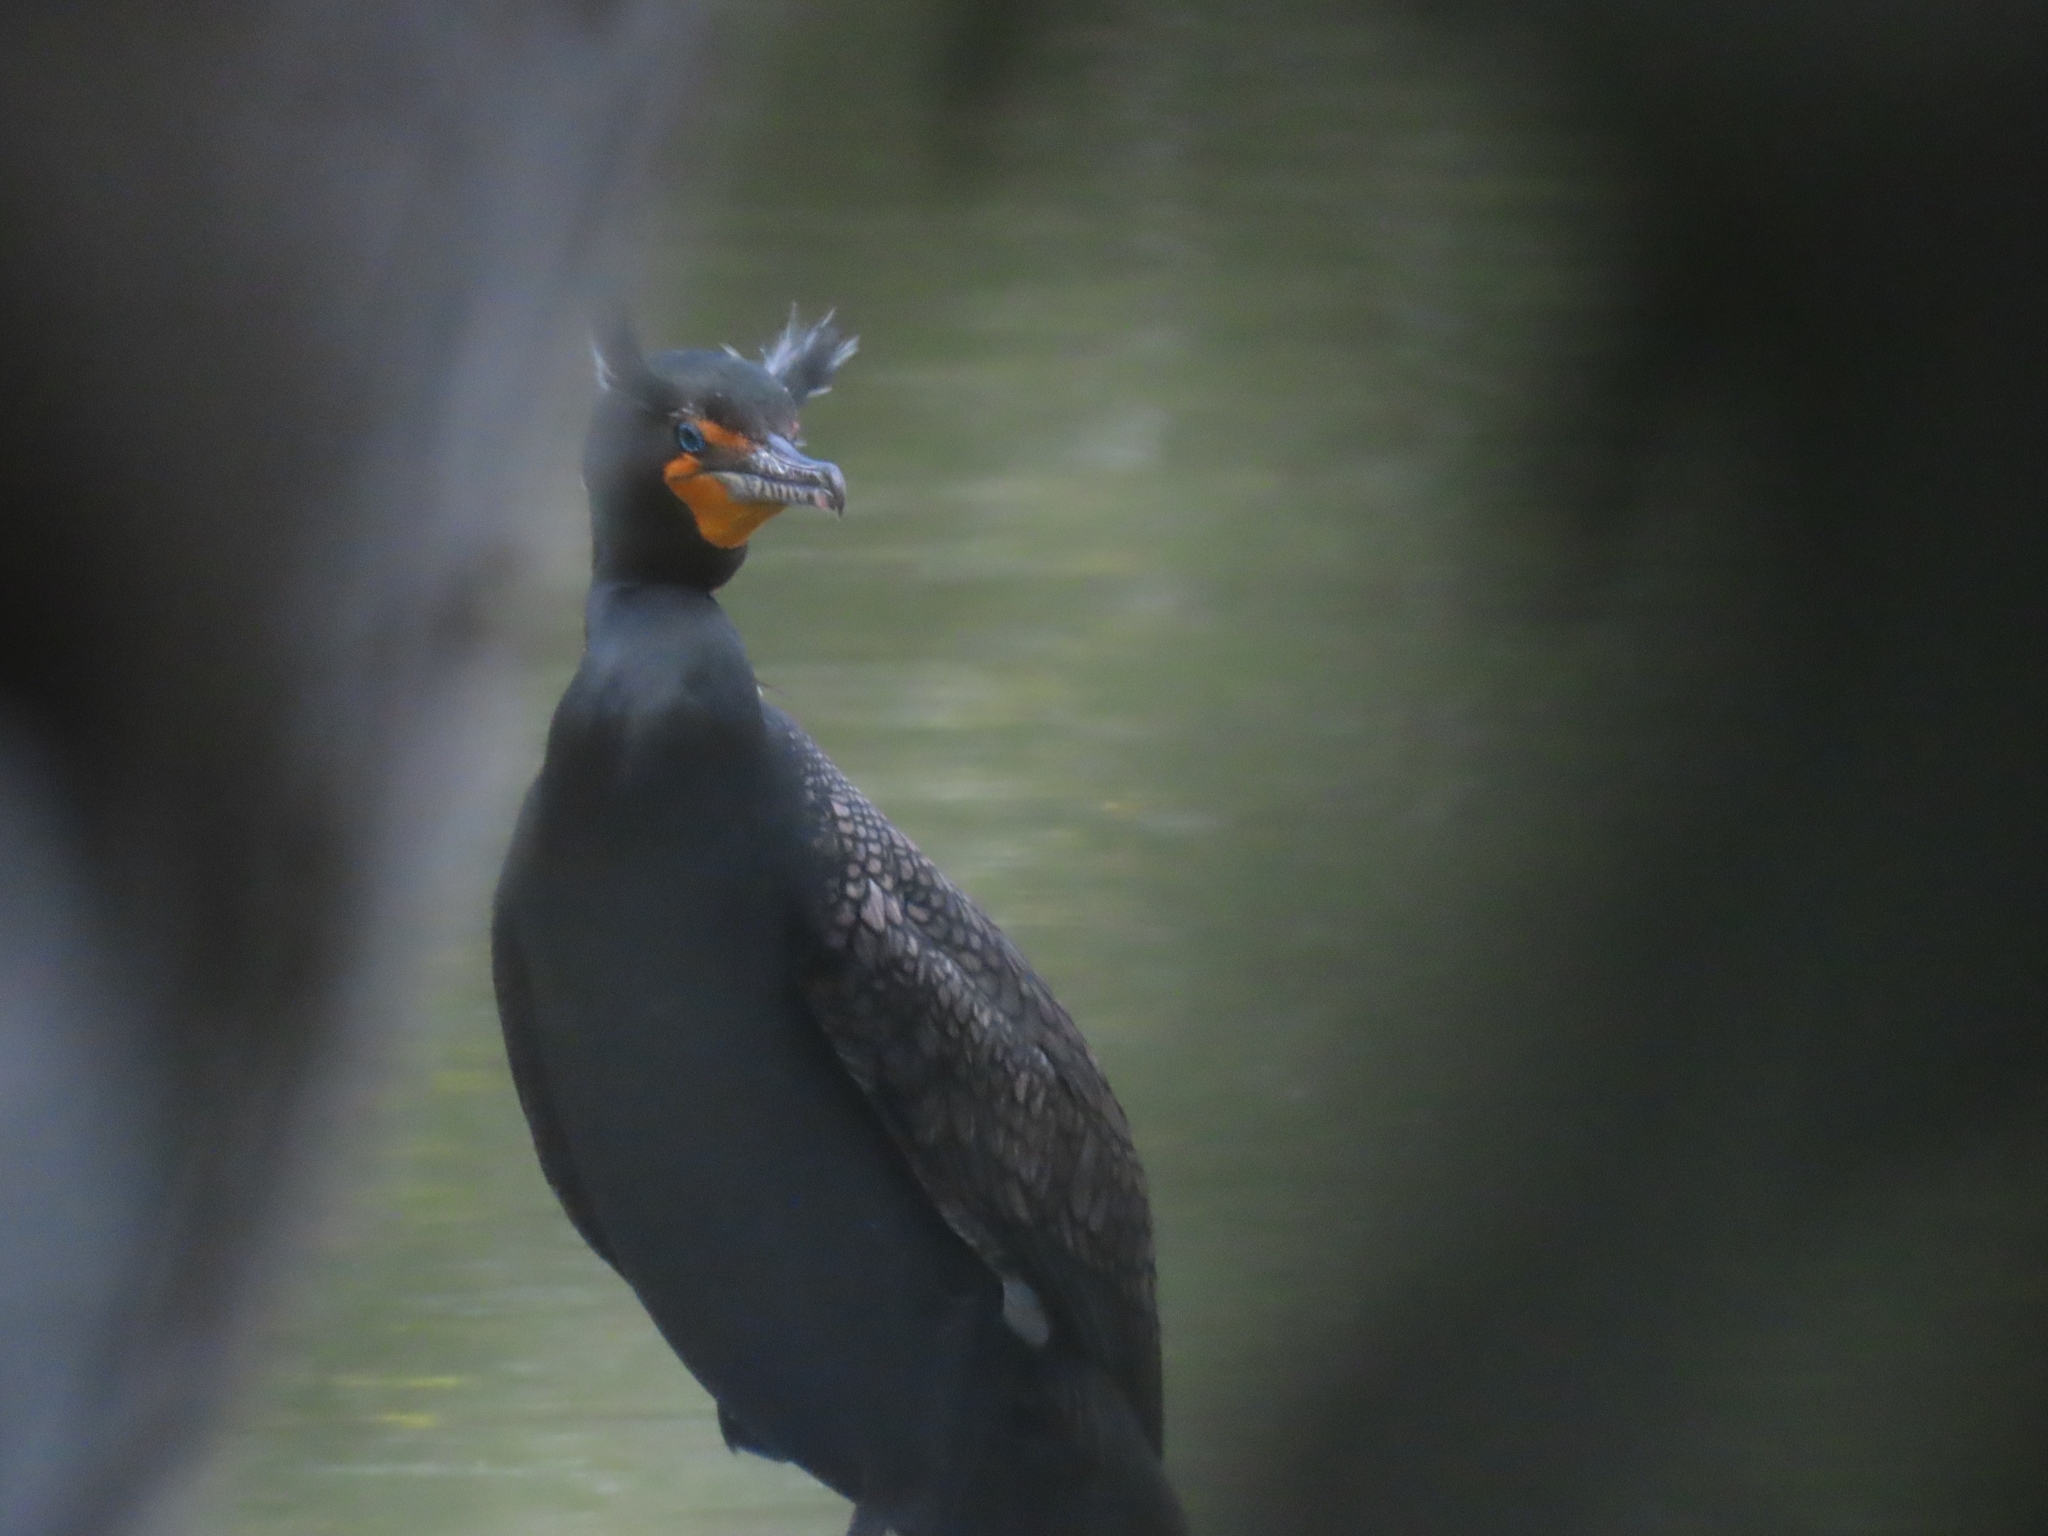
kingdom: Animalia
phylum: Chordata
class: Aves
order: Suliformes
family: Phalacrocoracidae
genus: Phalacrocorax
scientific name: Phalacrocorax auritus
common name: Double-crested cormorant
